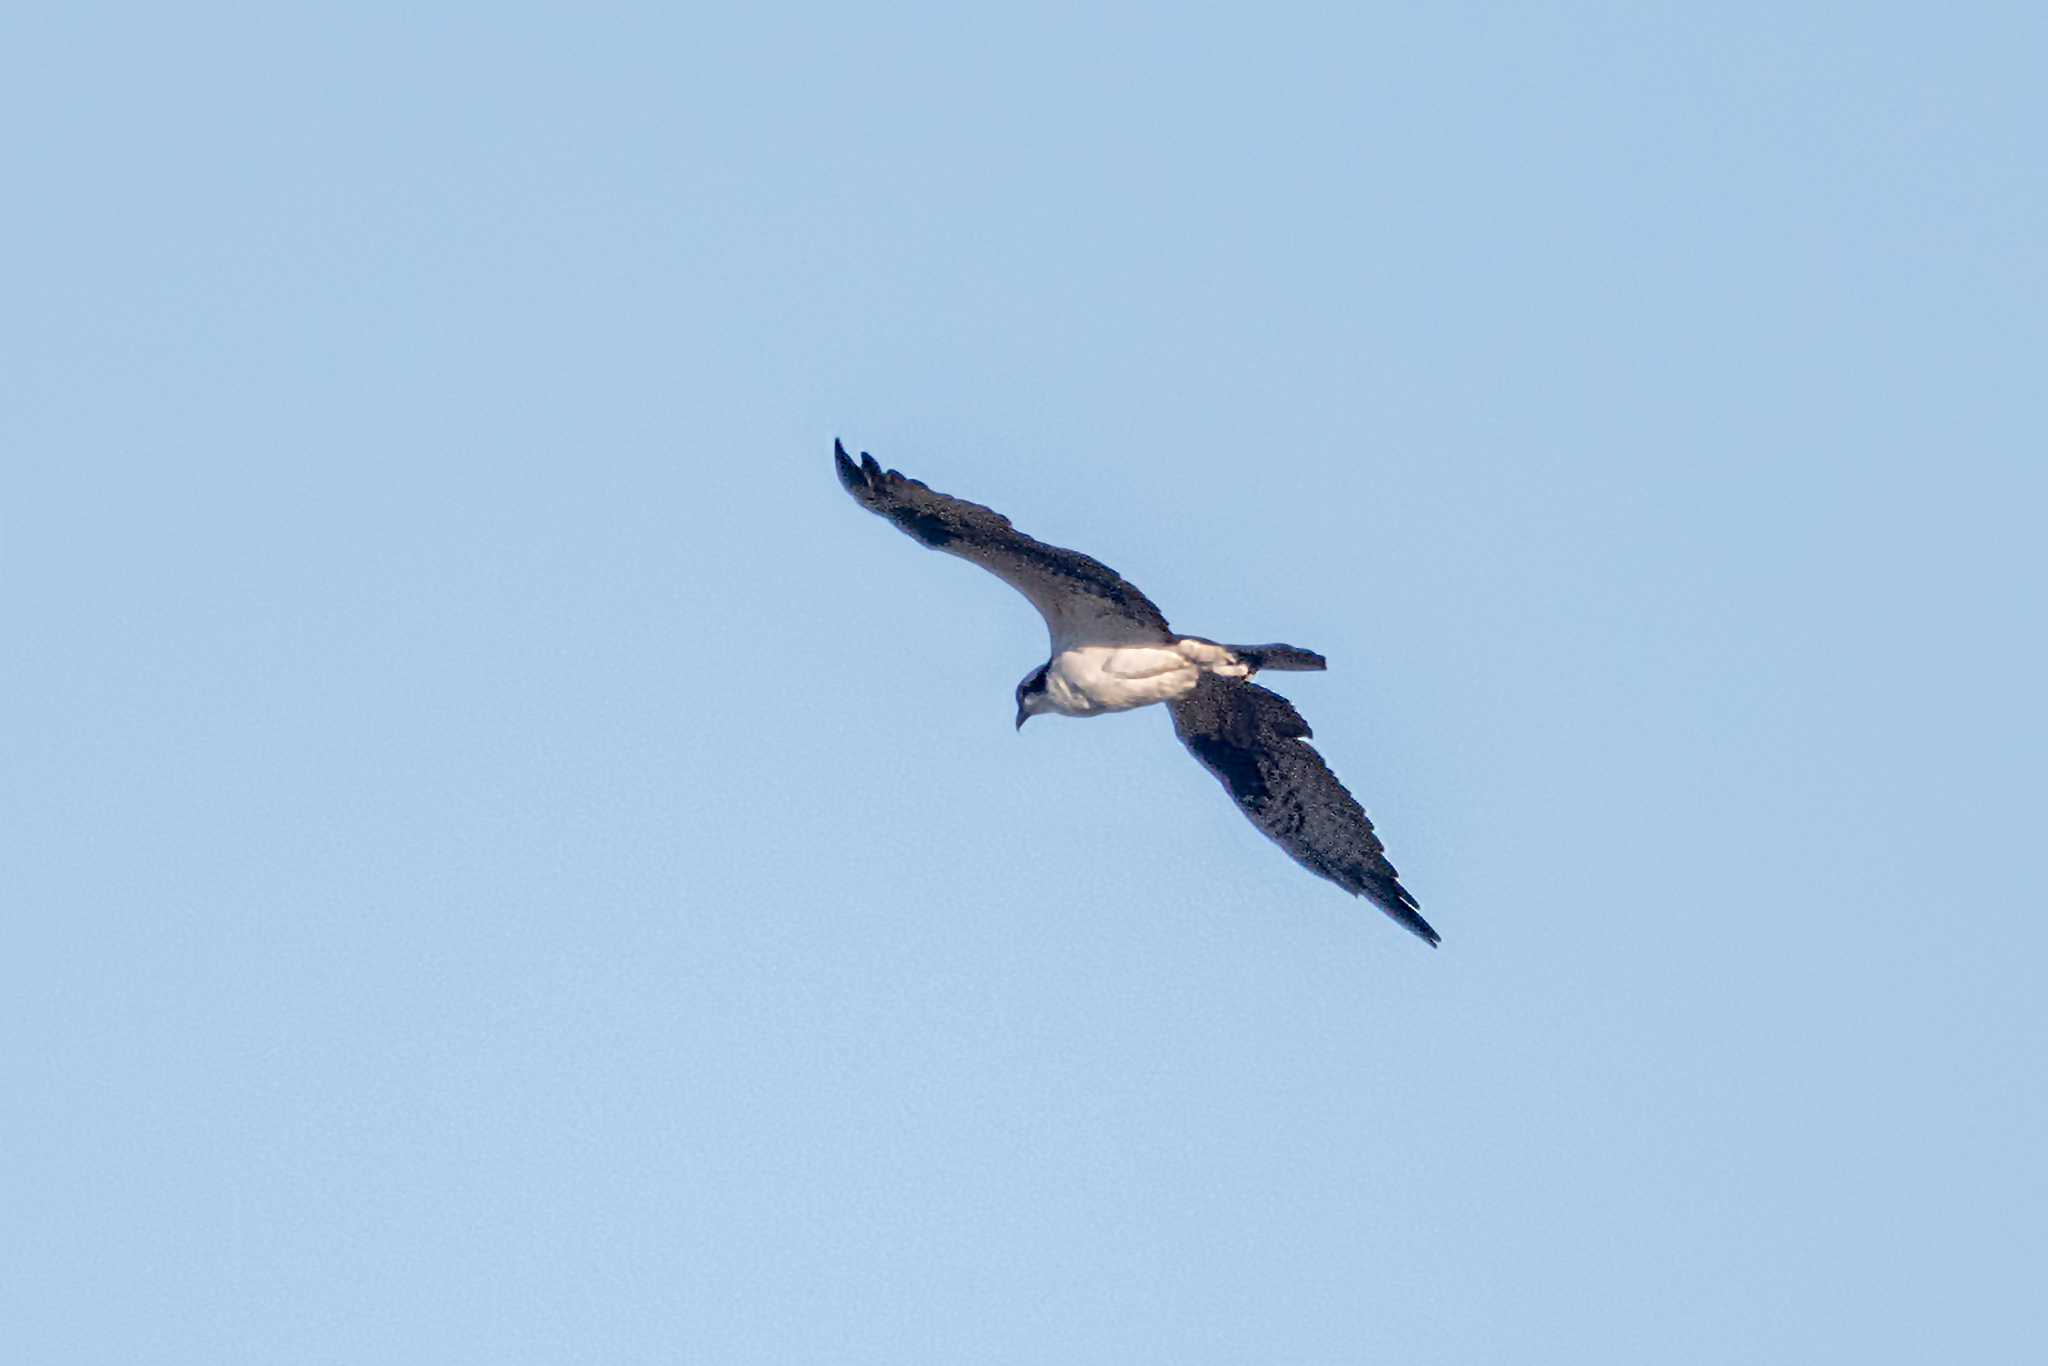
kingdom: Animalia
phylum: Chordata
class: Aves
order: Accipitriformes
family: Pandionidae
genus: Pandion
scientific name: Pandion haliaetus
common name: Osprey
